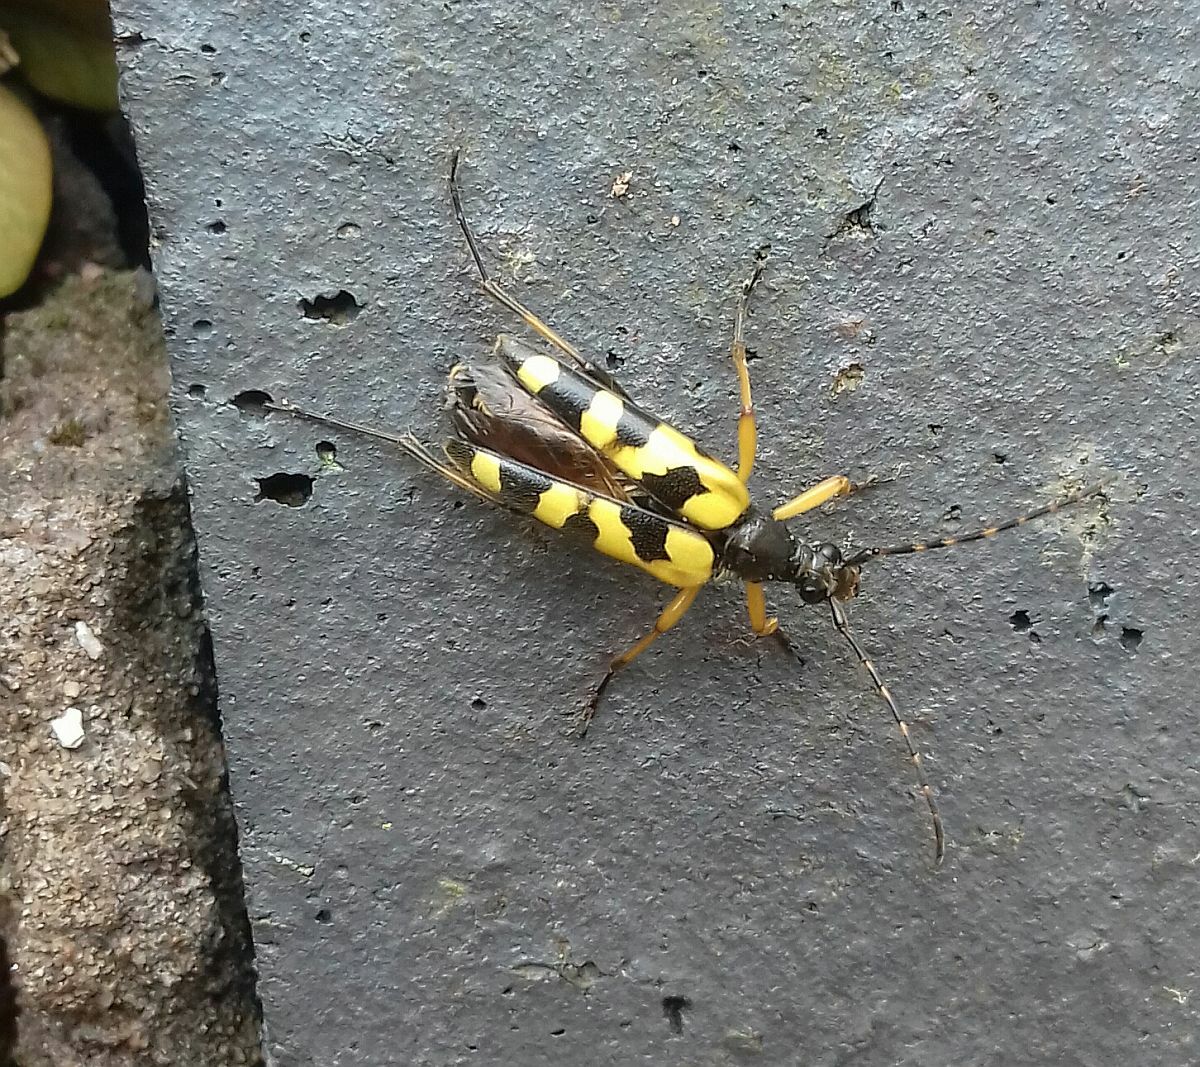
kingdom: Animalia
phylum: Arthropoda
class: Insecta
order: Coleoptera
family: Cerambycidae
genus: Rutpela
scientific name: Rutpela maculata
